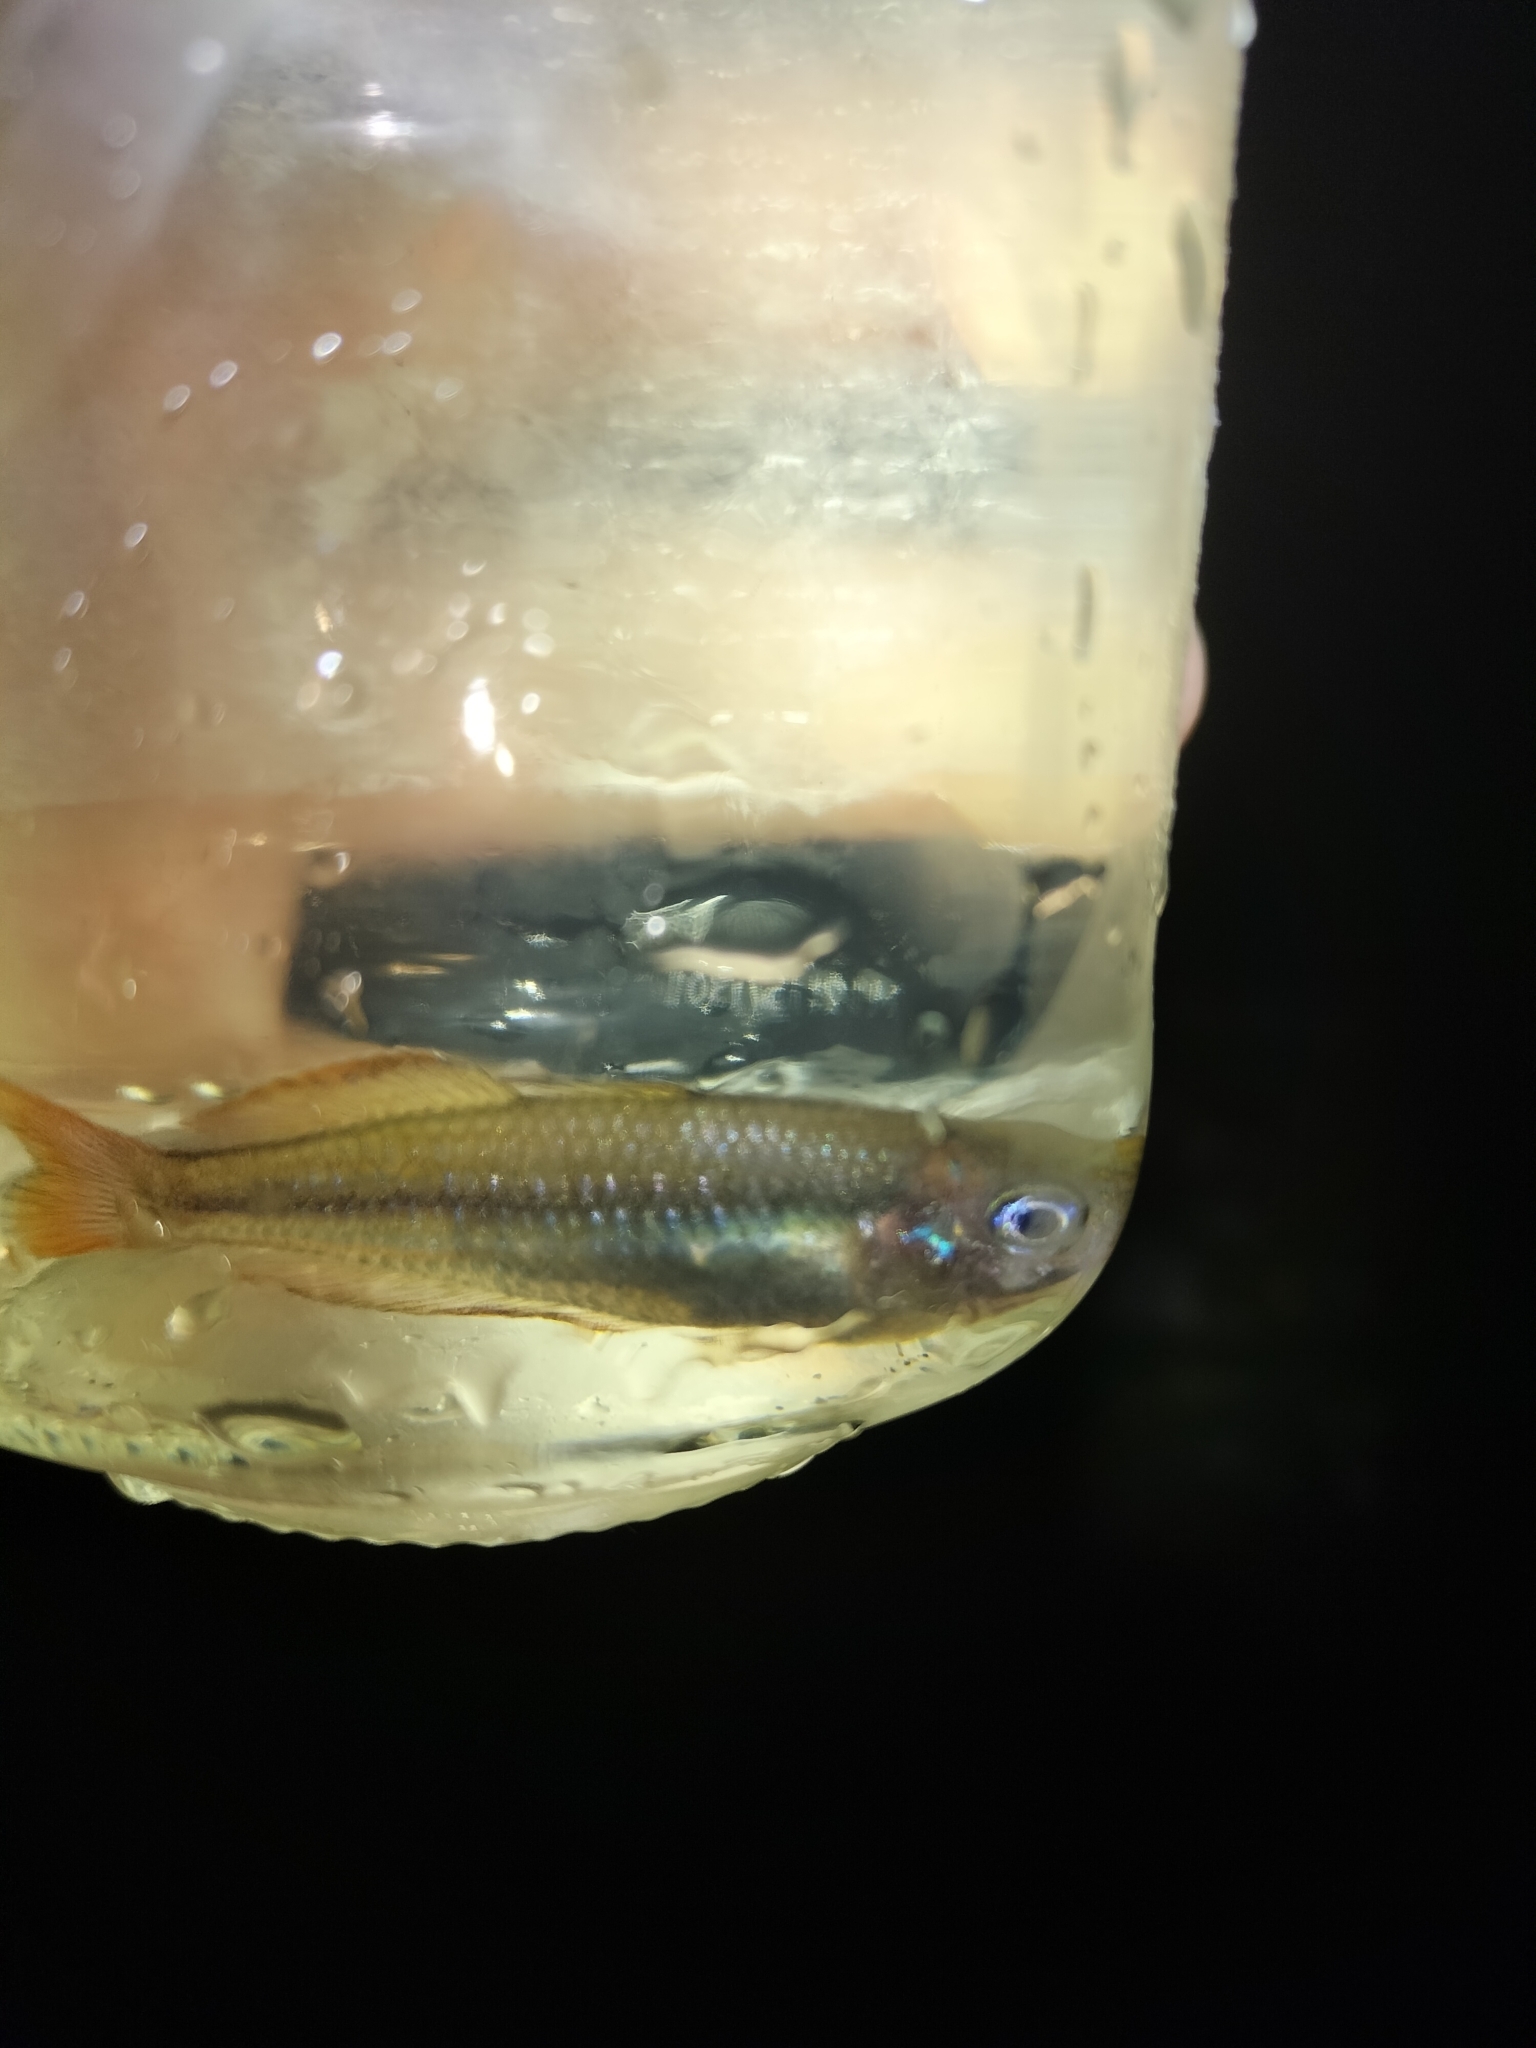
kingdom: Animalia
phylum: Chordata
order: Atheriniformes
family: Melanotaeniidae
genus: Melanotaenia
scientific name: Melanotaenia splendida
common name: Checkered rainbowfish
